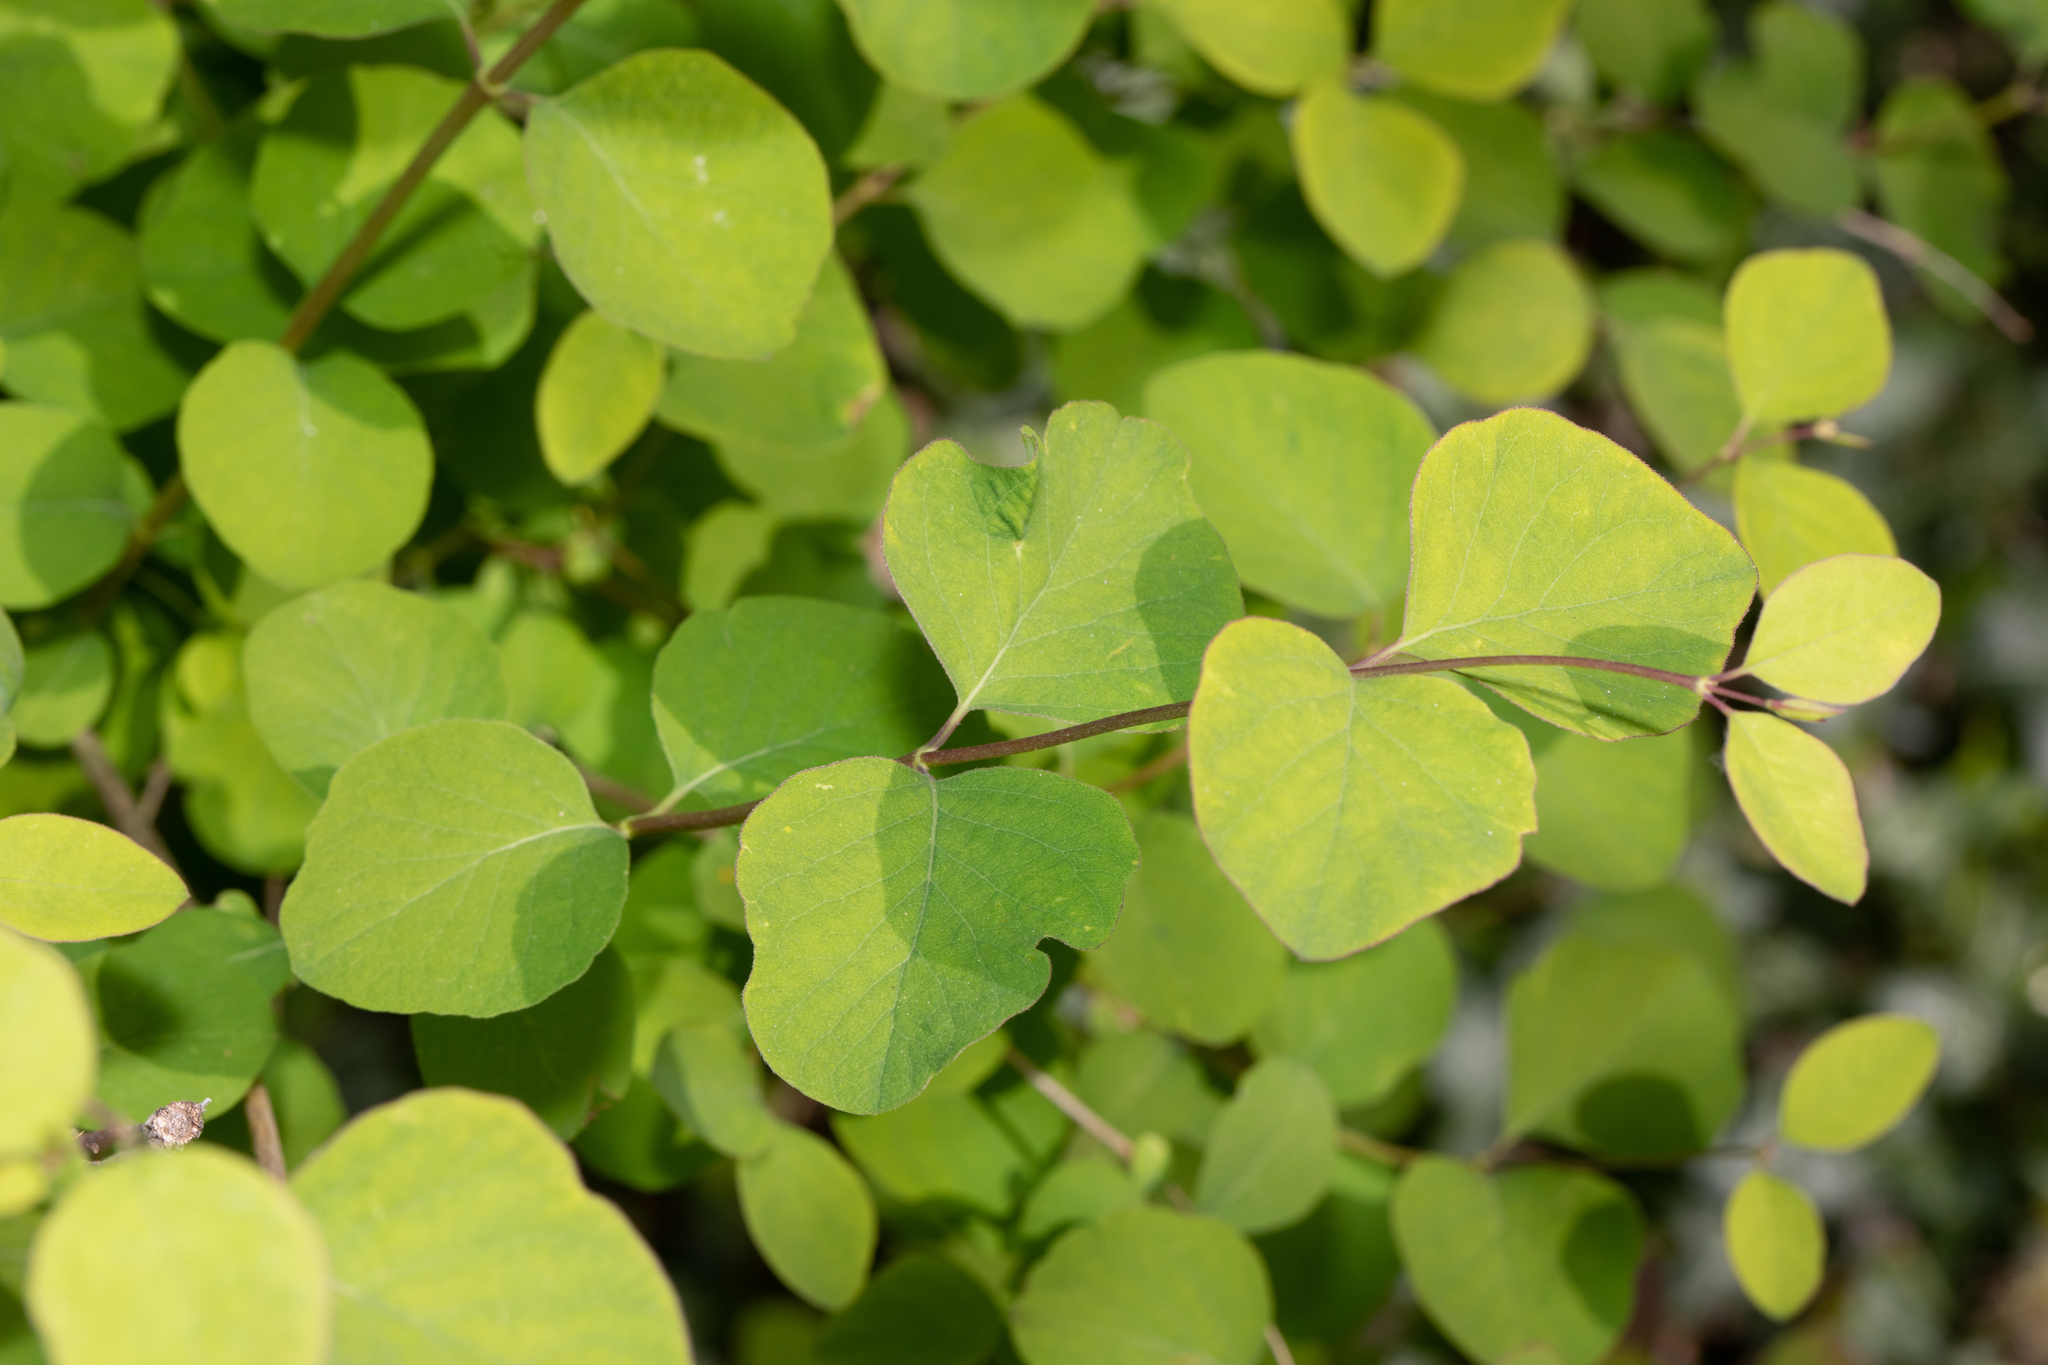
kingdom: Plantae
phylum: Tracheophyta
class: Magnoliopsida
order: Dipsacales
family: Caprifoliaceae
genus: Symphoricarpos
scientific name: Symphoricarpos albus
